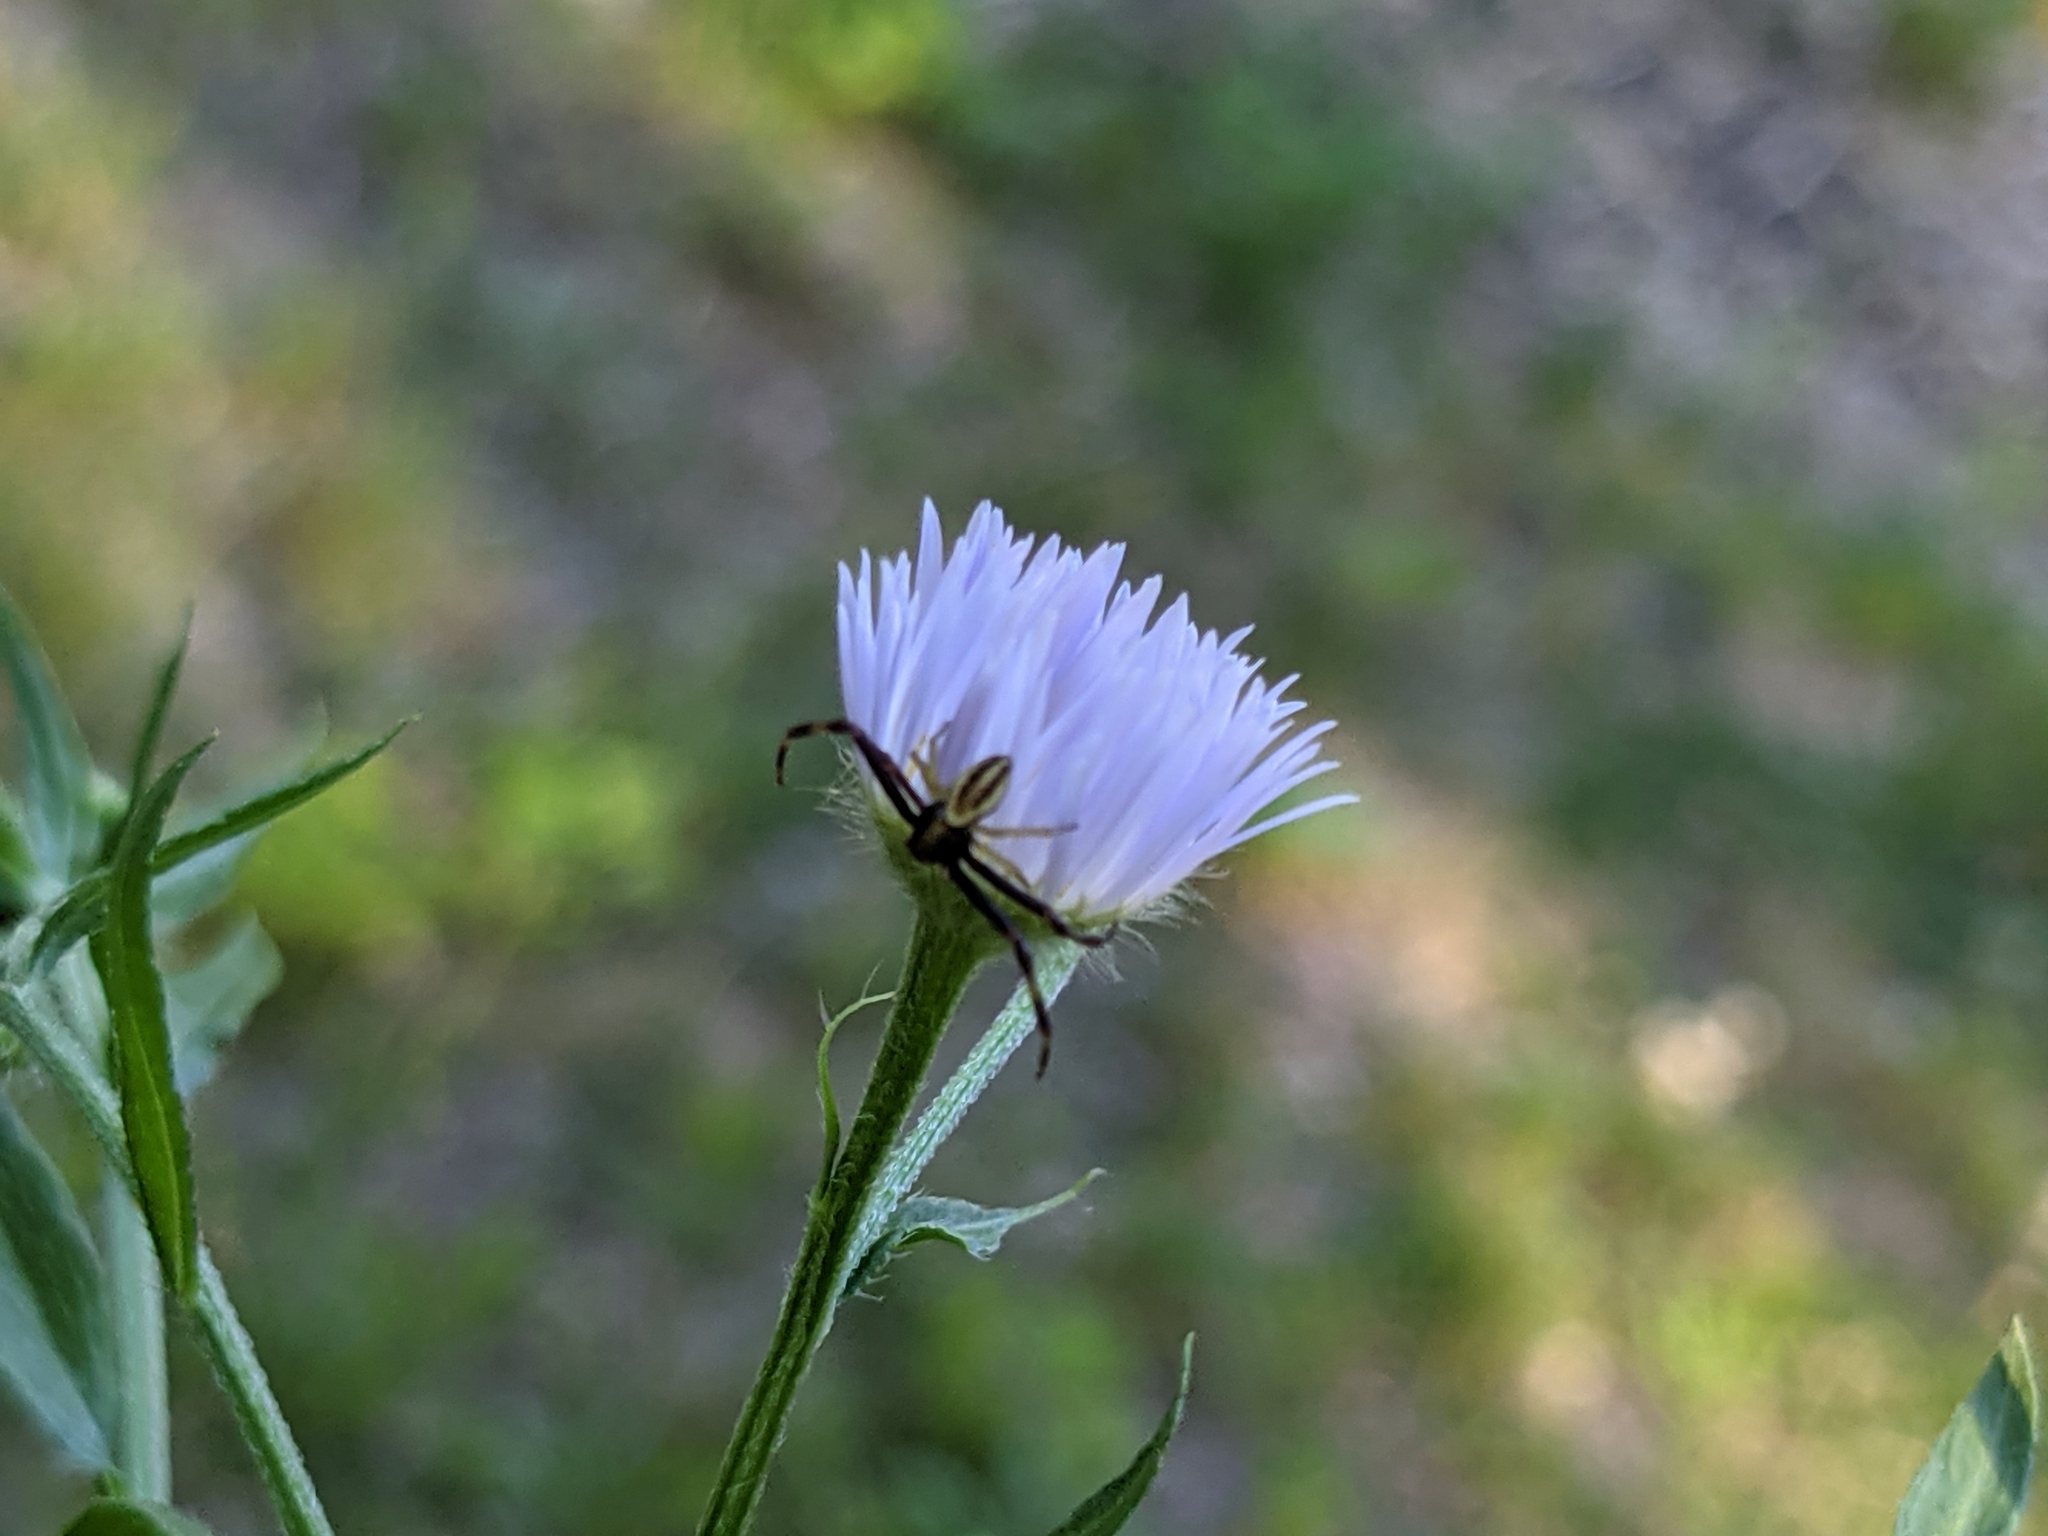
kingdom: Animalia
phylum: Arthropoda
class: Arachnida
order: Araneae
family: Thomisidae
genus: Misumena
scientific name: Misumena vatia
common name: Goldenrod crab spider
